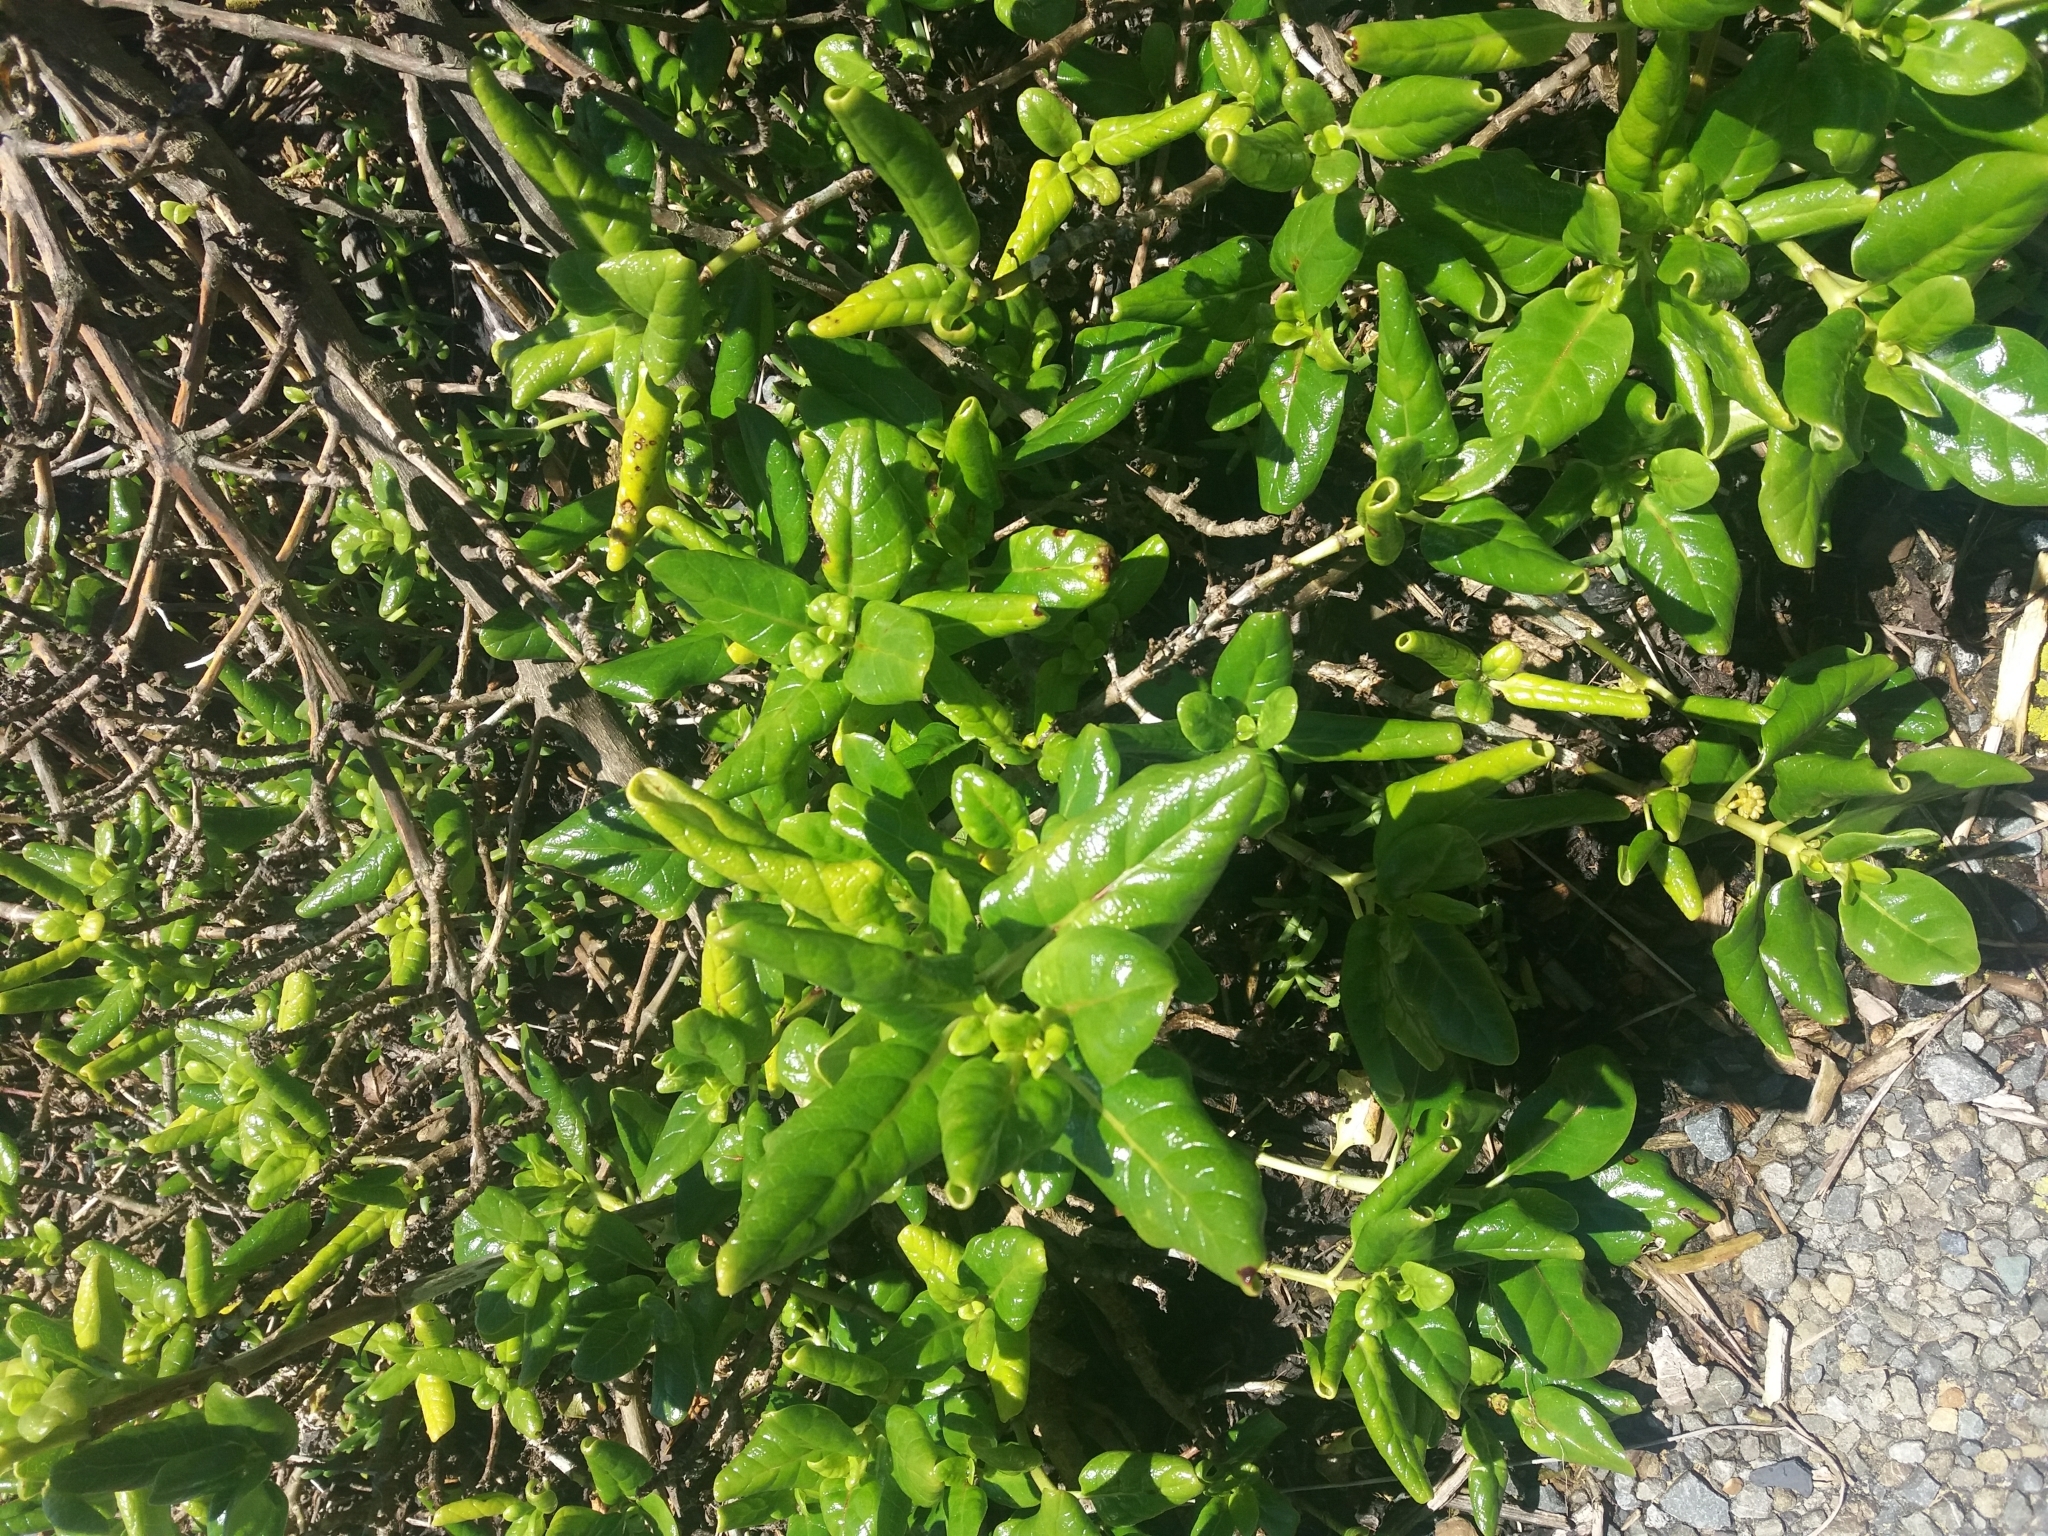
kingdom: Plantae
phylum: Tracheophyta
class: Magnoliopsida
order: Gentianales
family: Rubiaceae
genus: Coprosma
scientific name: Coprosma repens
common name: Tree bedstraw
